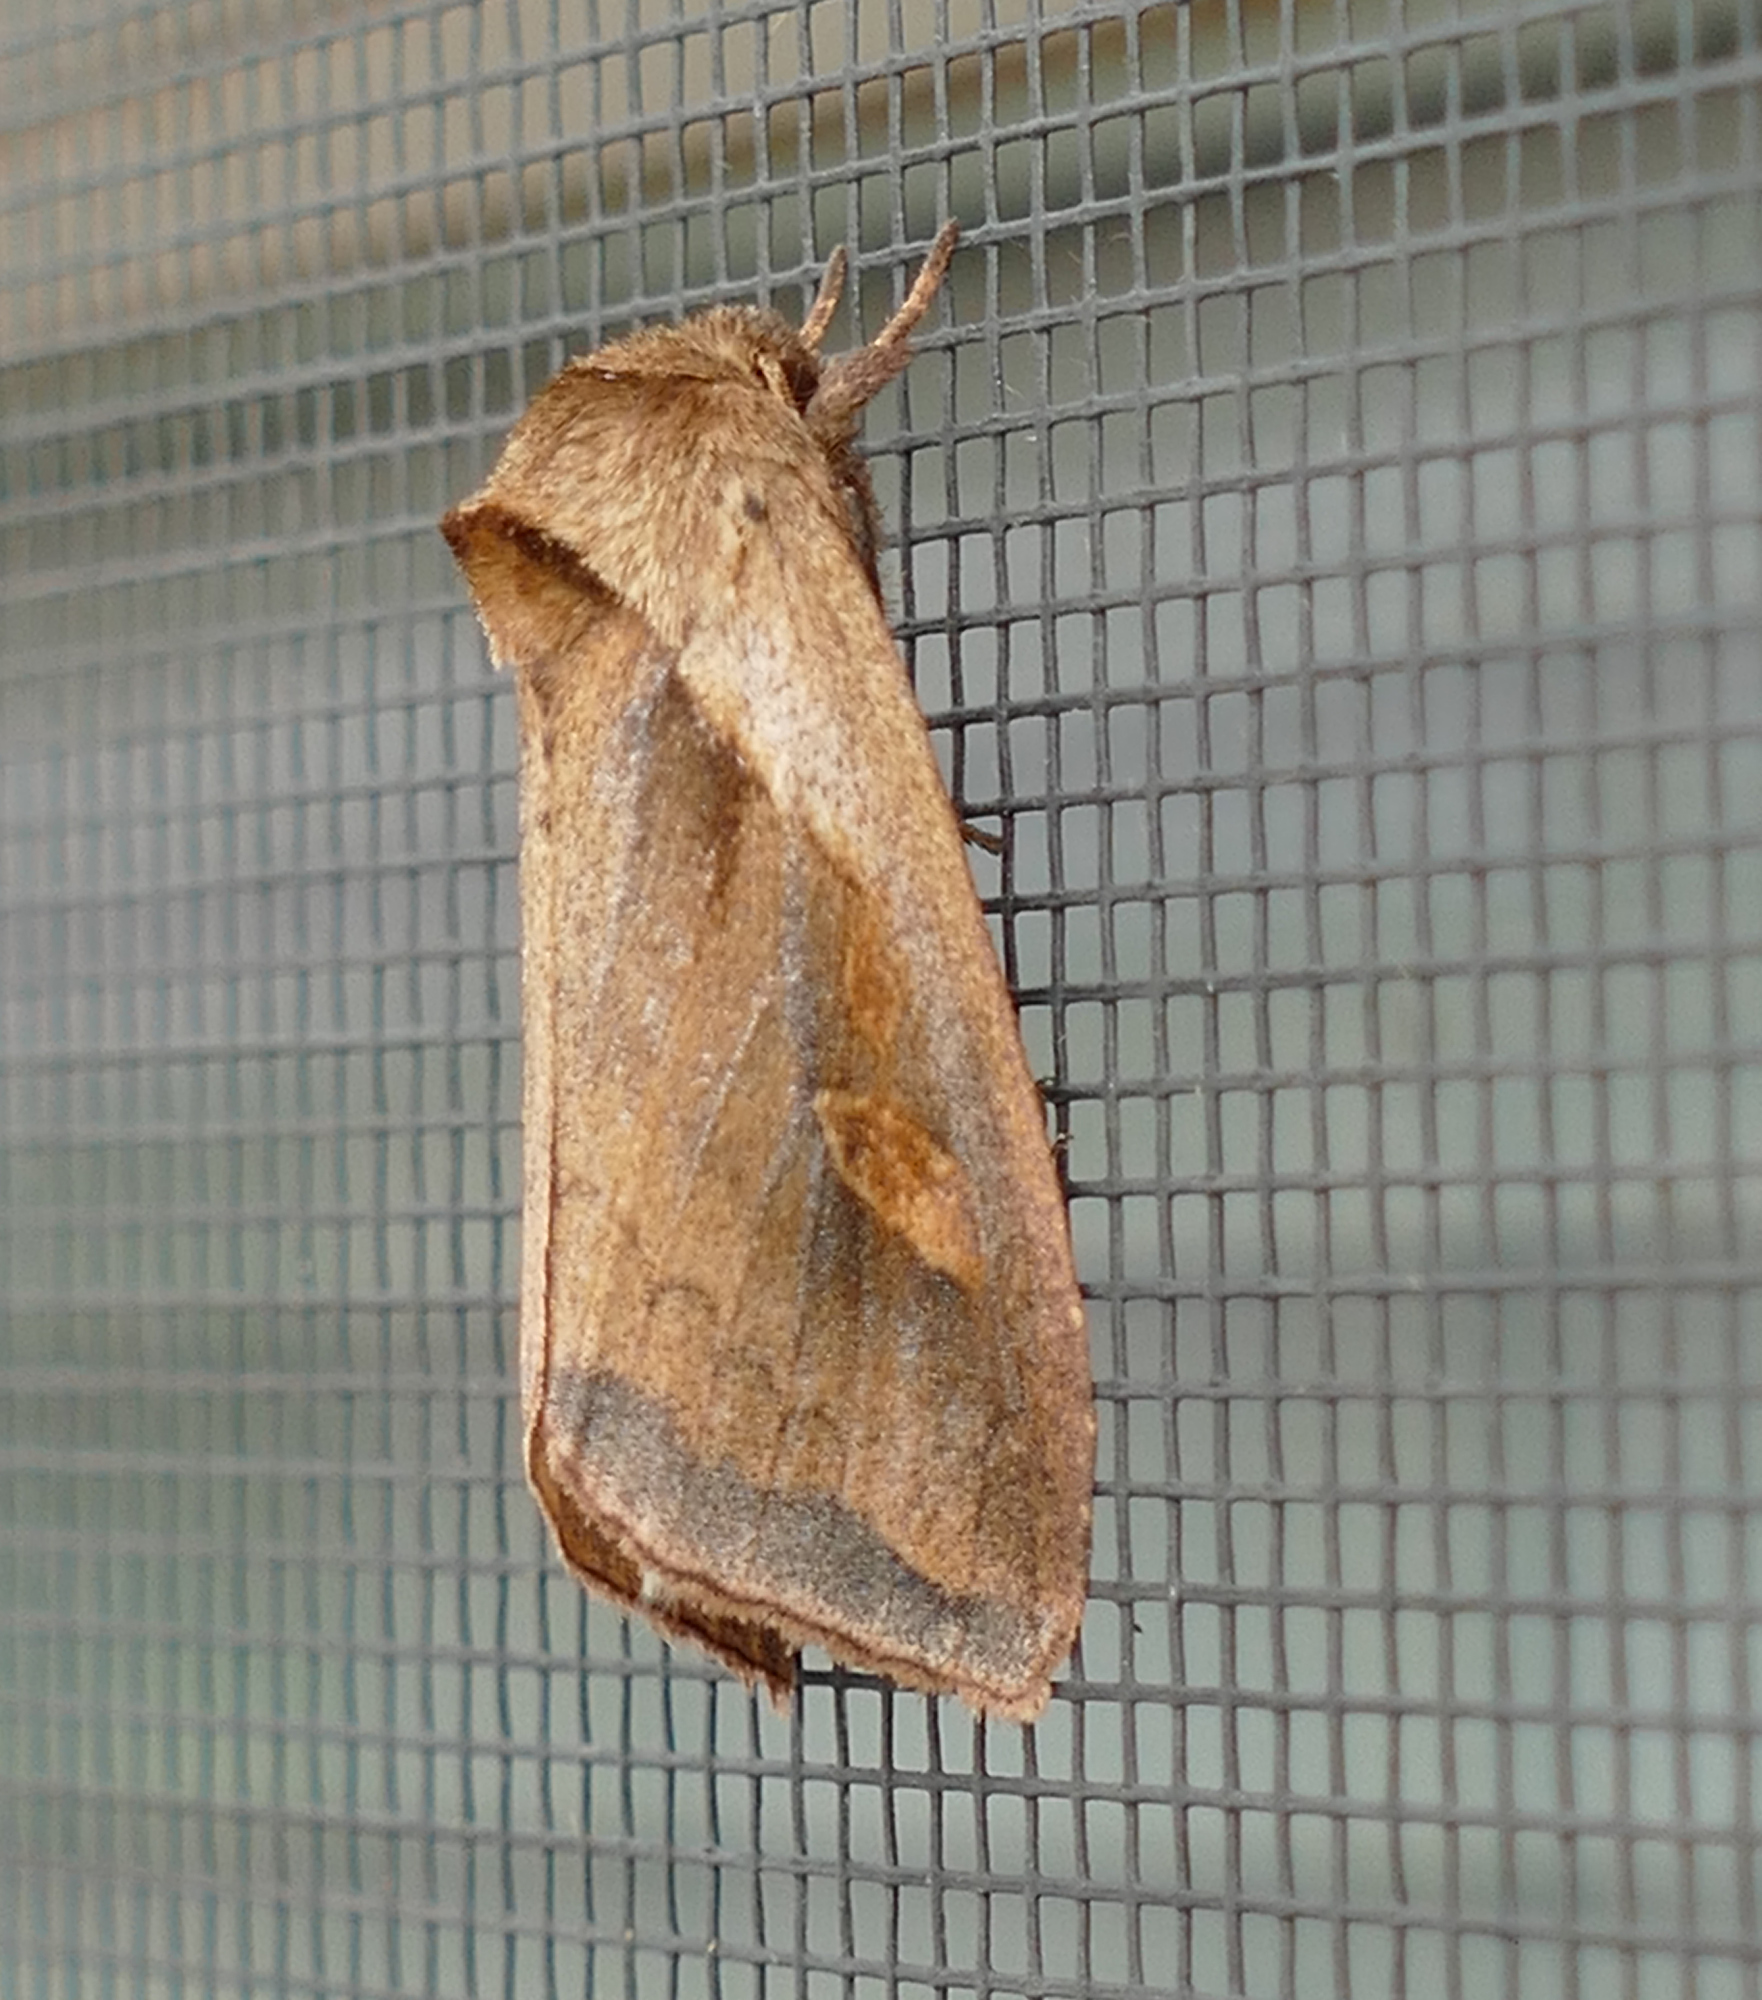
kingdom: Animalia
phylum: Arthropoda
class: Insecta
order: Lepidoptera
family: Noctuidae
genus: Bellura
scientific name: Bellura obliqua
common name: Cattail borer moth
